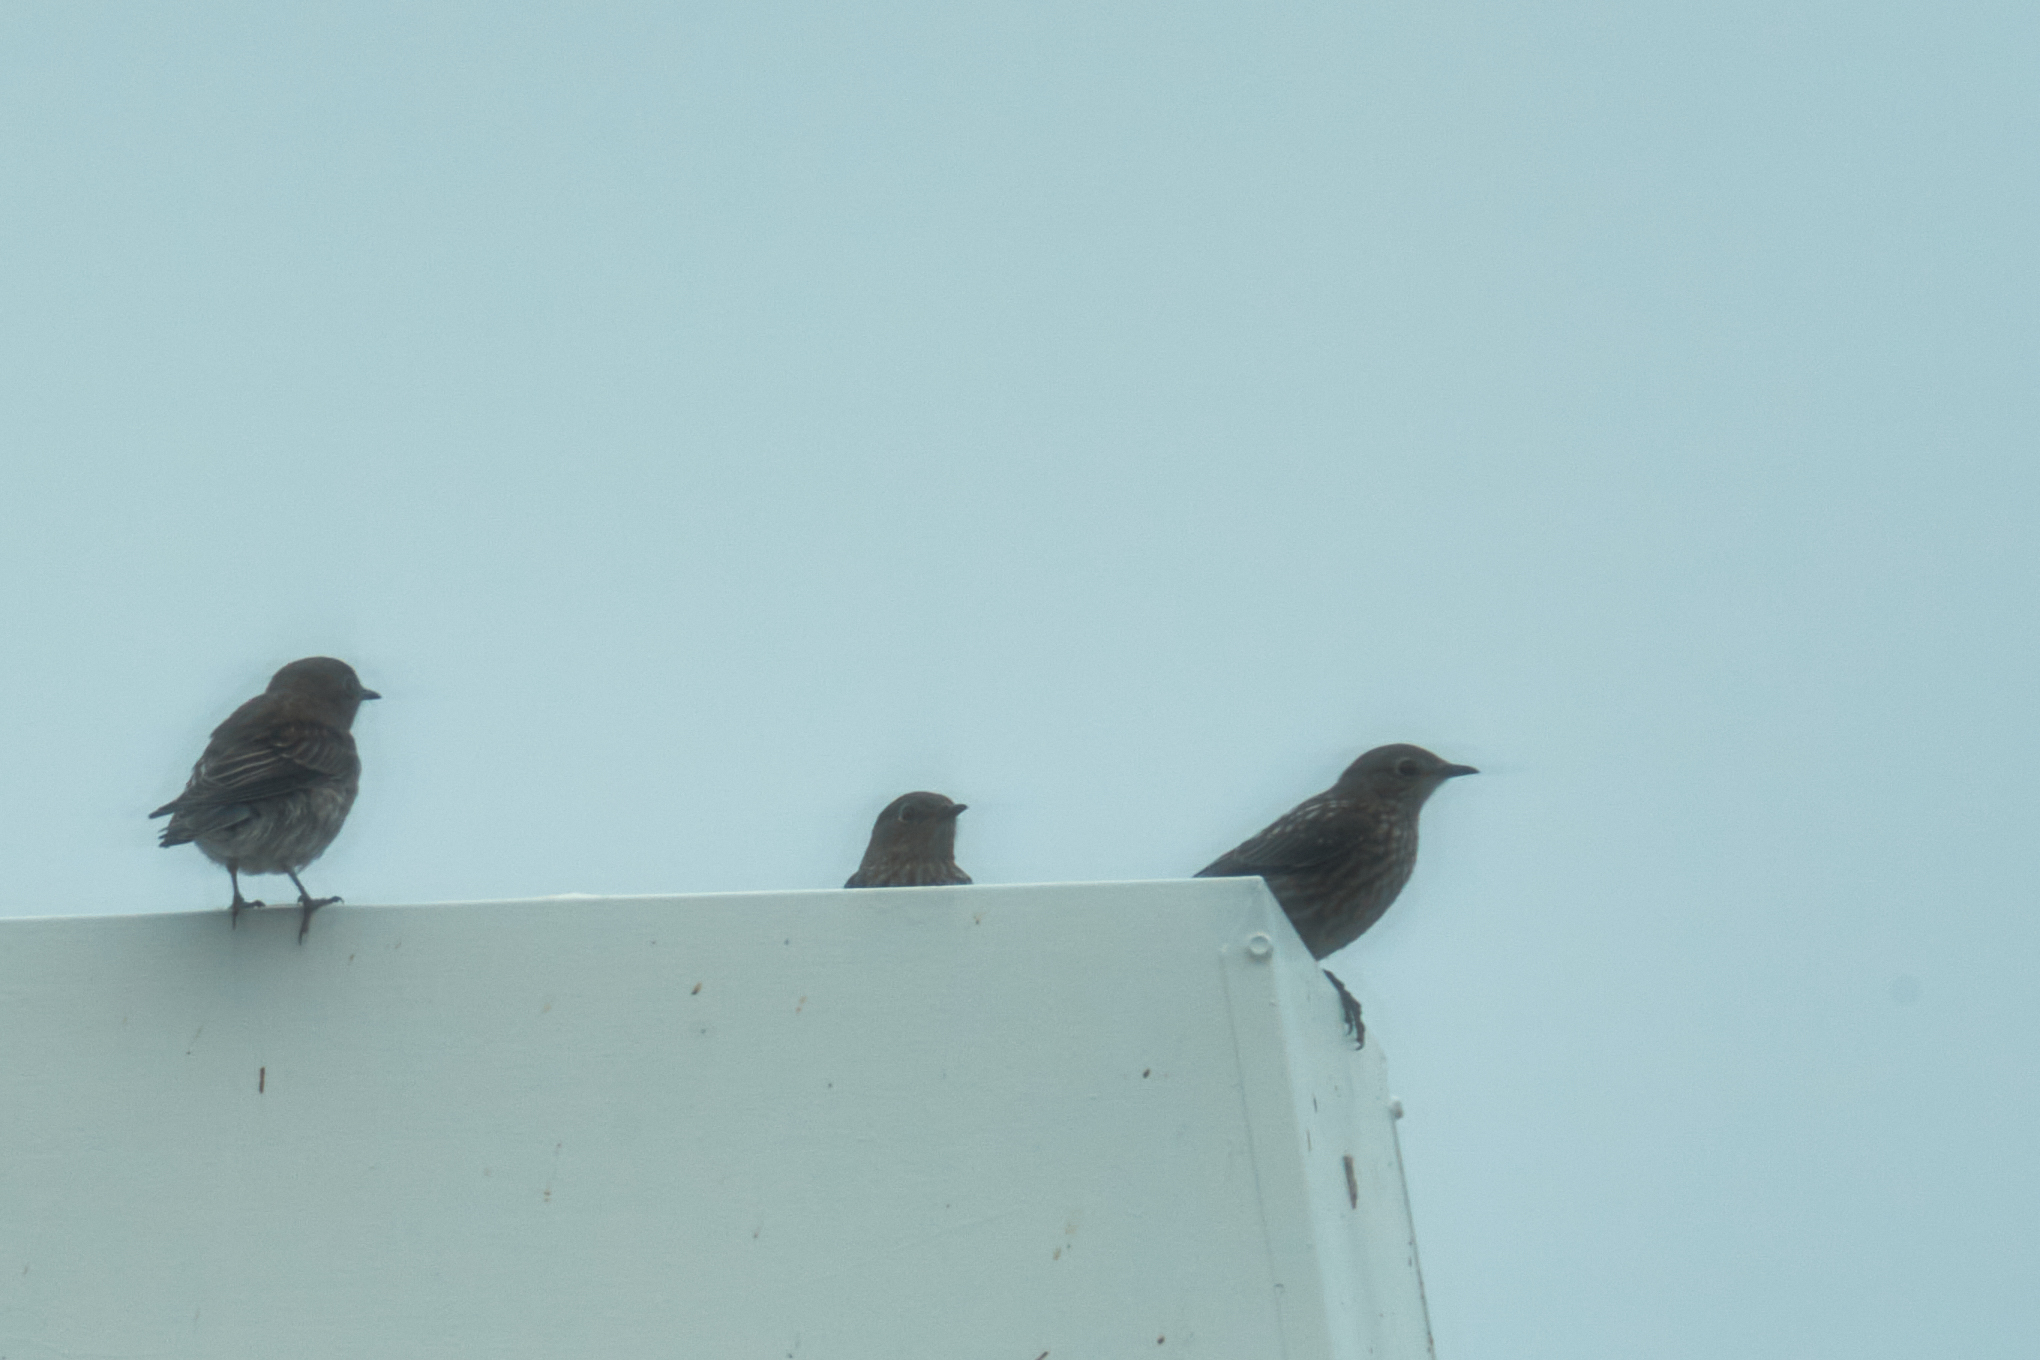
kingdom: Animalia
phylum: Chordata
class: Aves
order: Passeriformes
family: Turdidae
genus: Sialia
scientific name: Sialia mexicana
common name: Western bluebird
